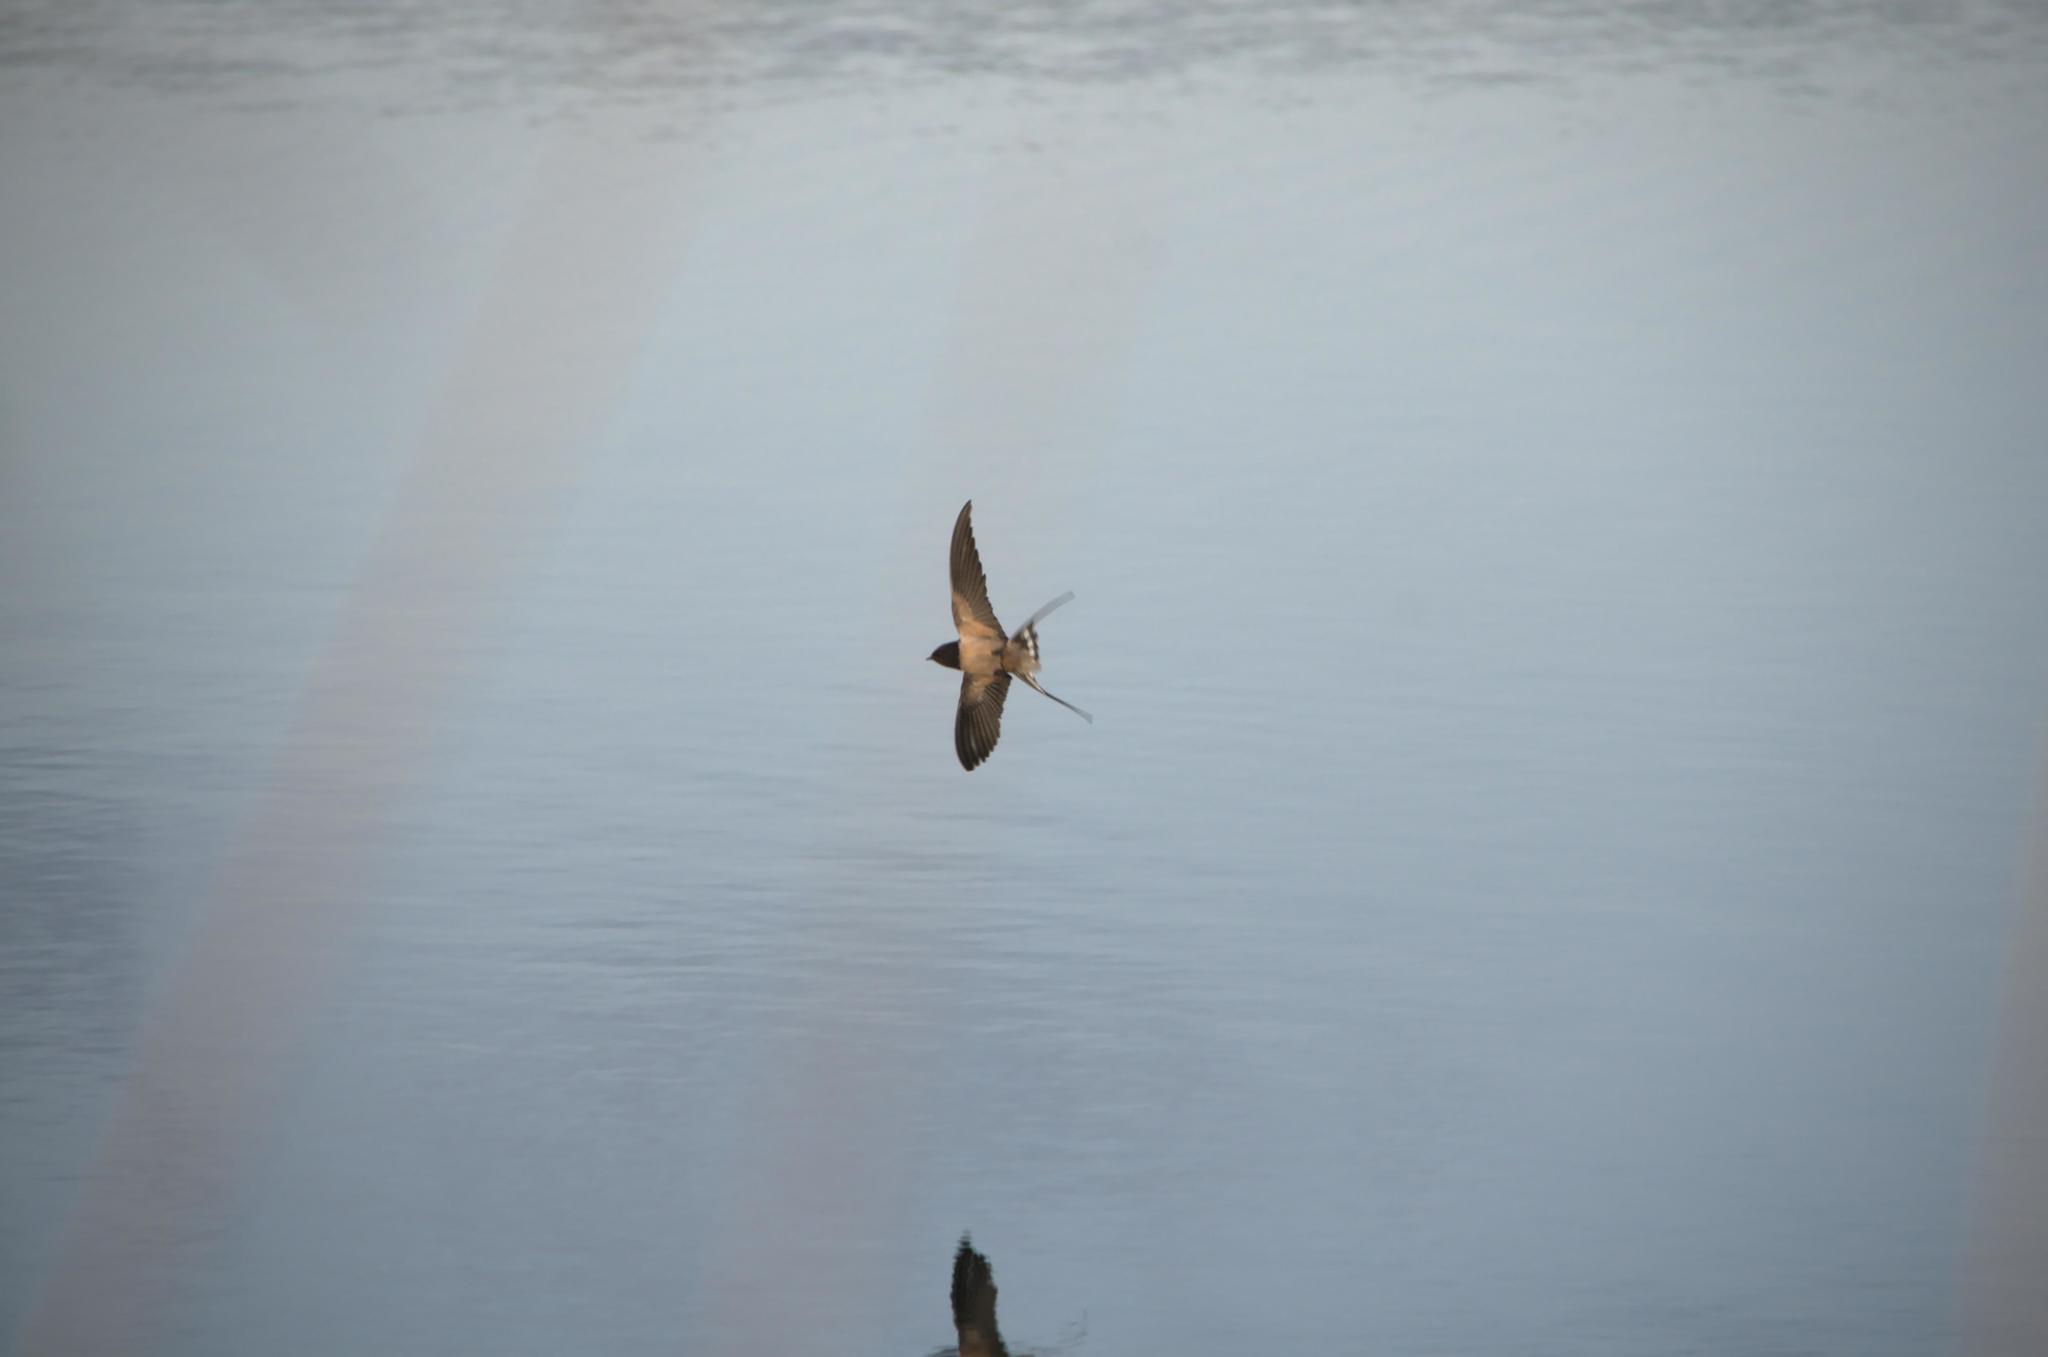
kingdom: Animalia
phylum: Chordata
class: Aves
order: Passeriformes
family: Hirundinidae
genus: Hirundo
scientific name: Hirundo rustica
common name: Barn swallow
